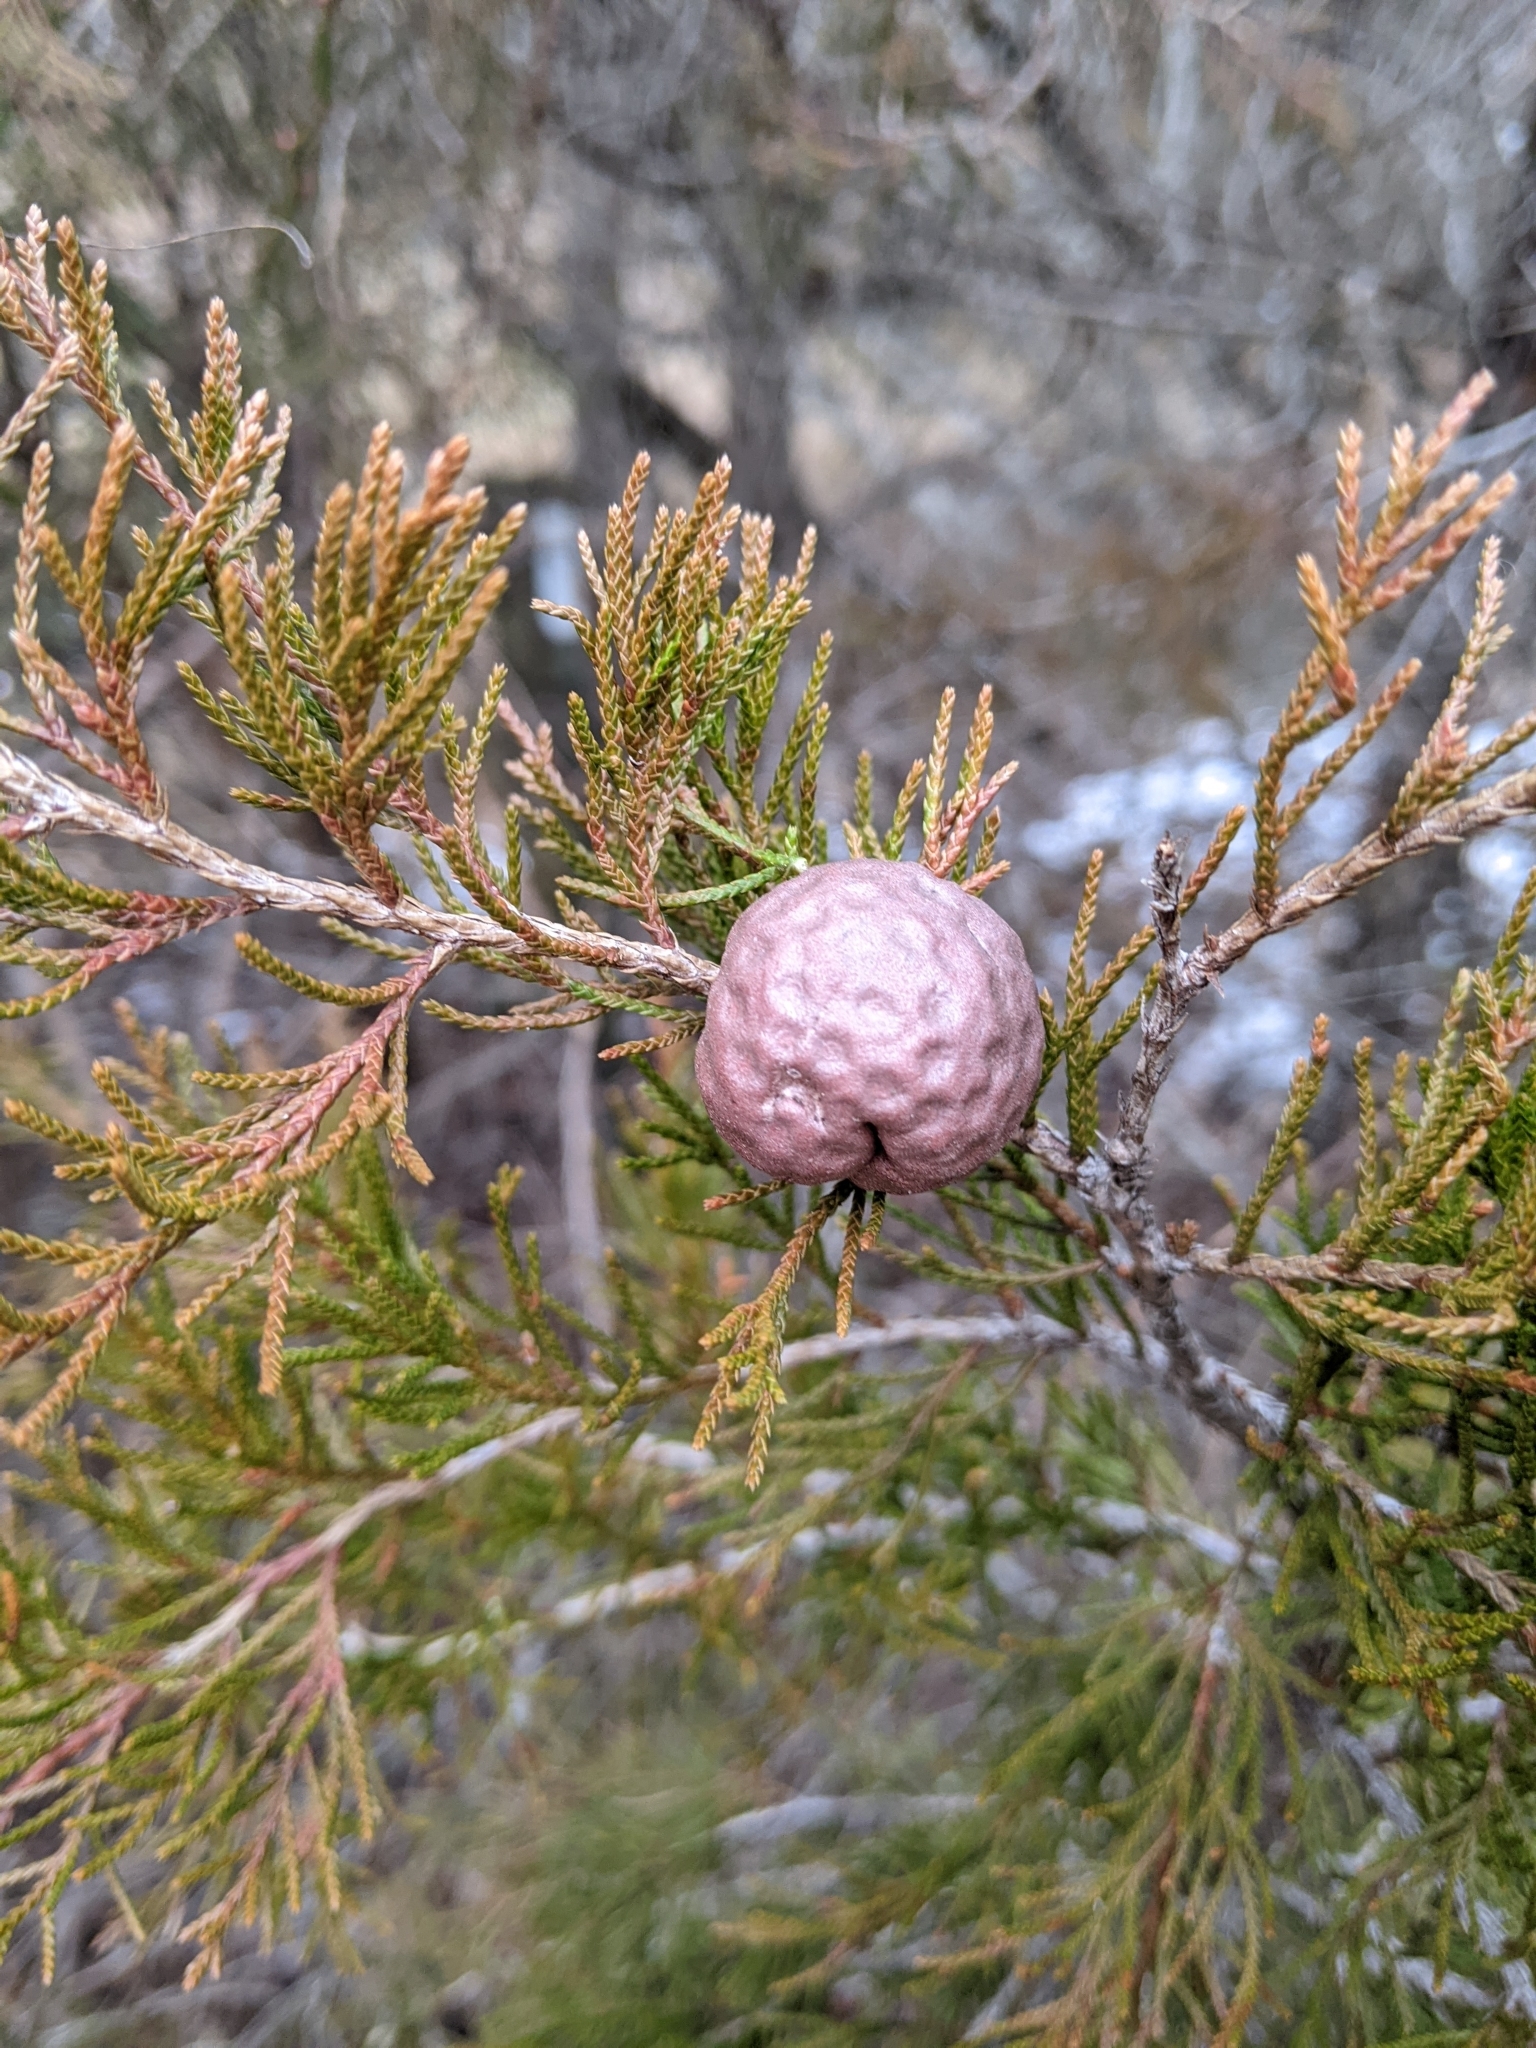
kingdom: Fungi
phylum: Basidiomycota
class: Pucciniomycetes
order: Pucciniales
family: Gymnosporangiaceae
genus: Gymnosporangium
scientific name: Gymnosporangium juniperi-virginianae
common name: Juniper-apple rust
